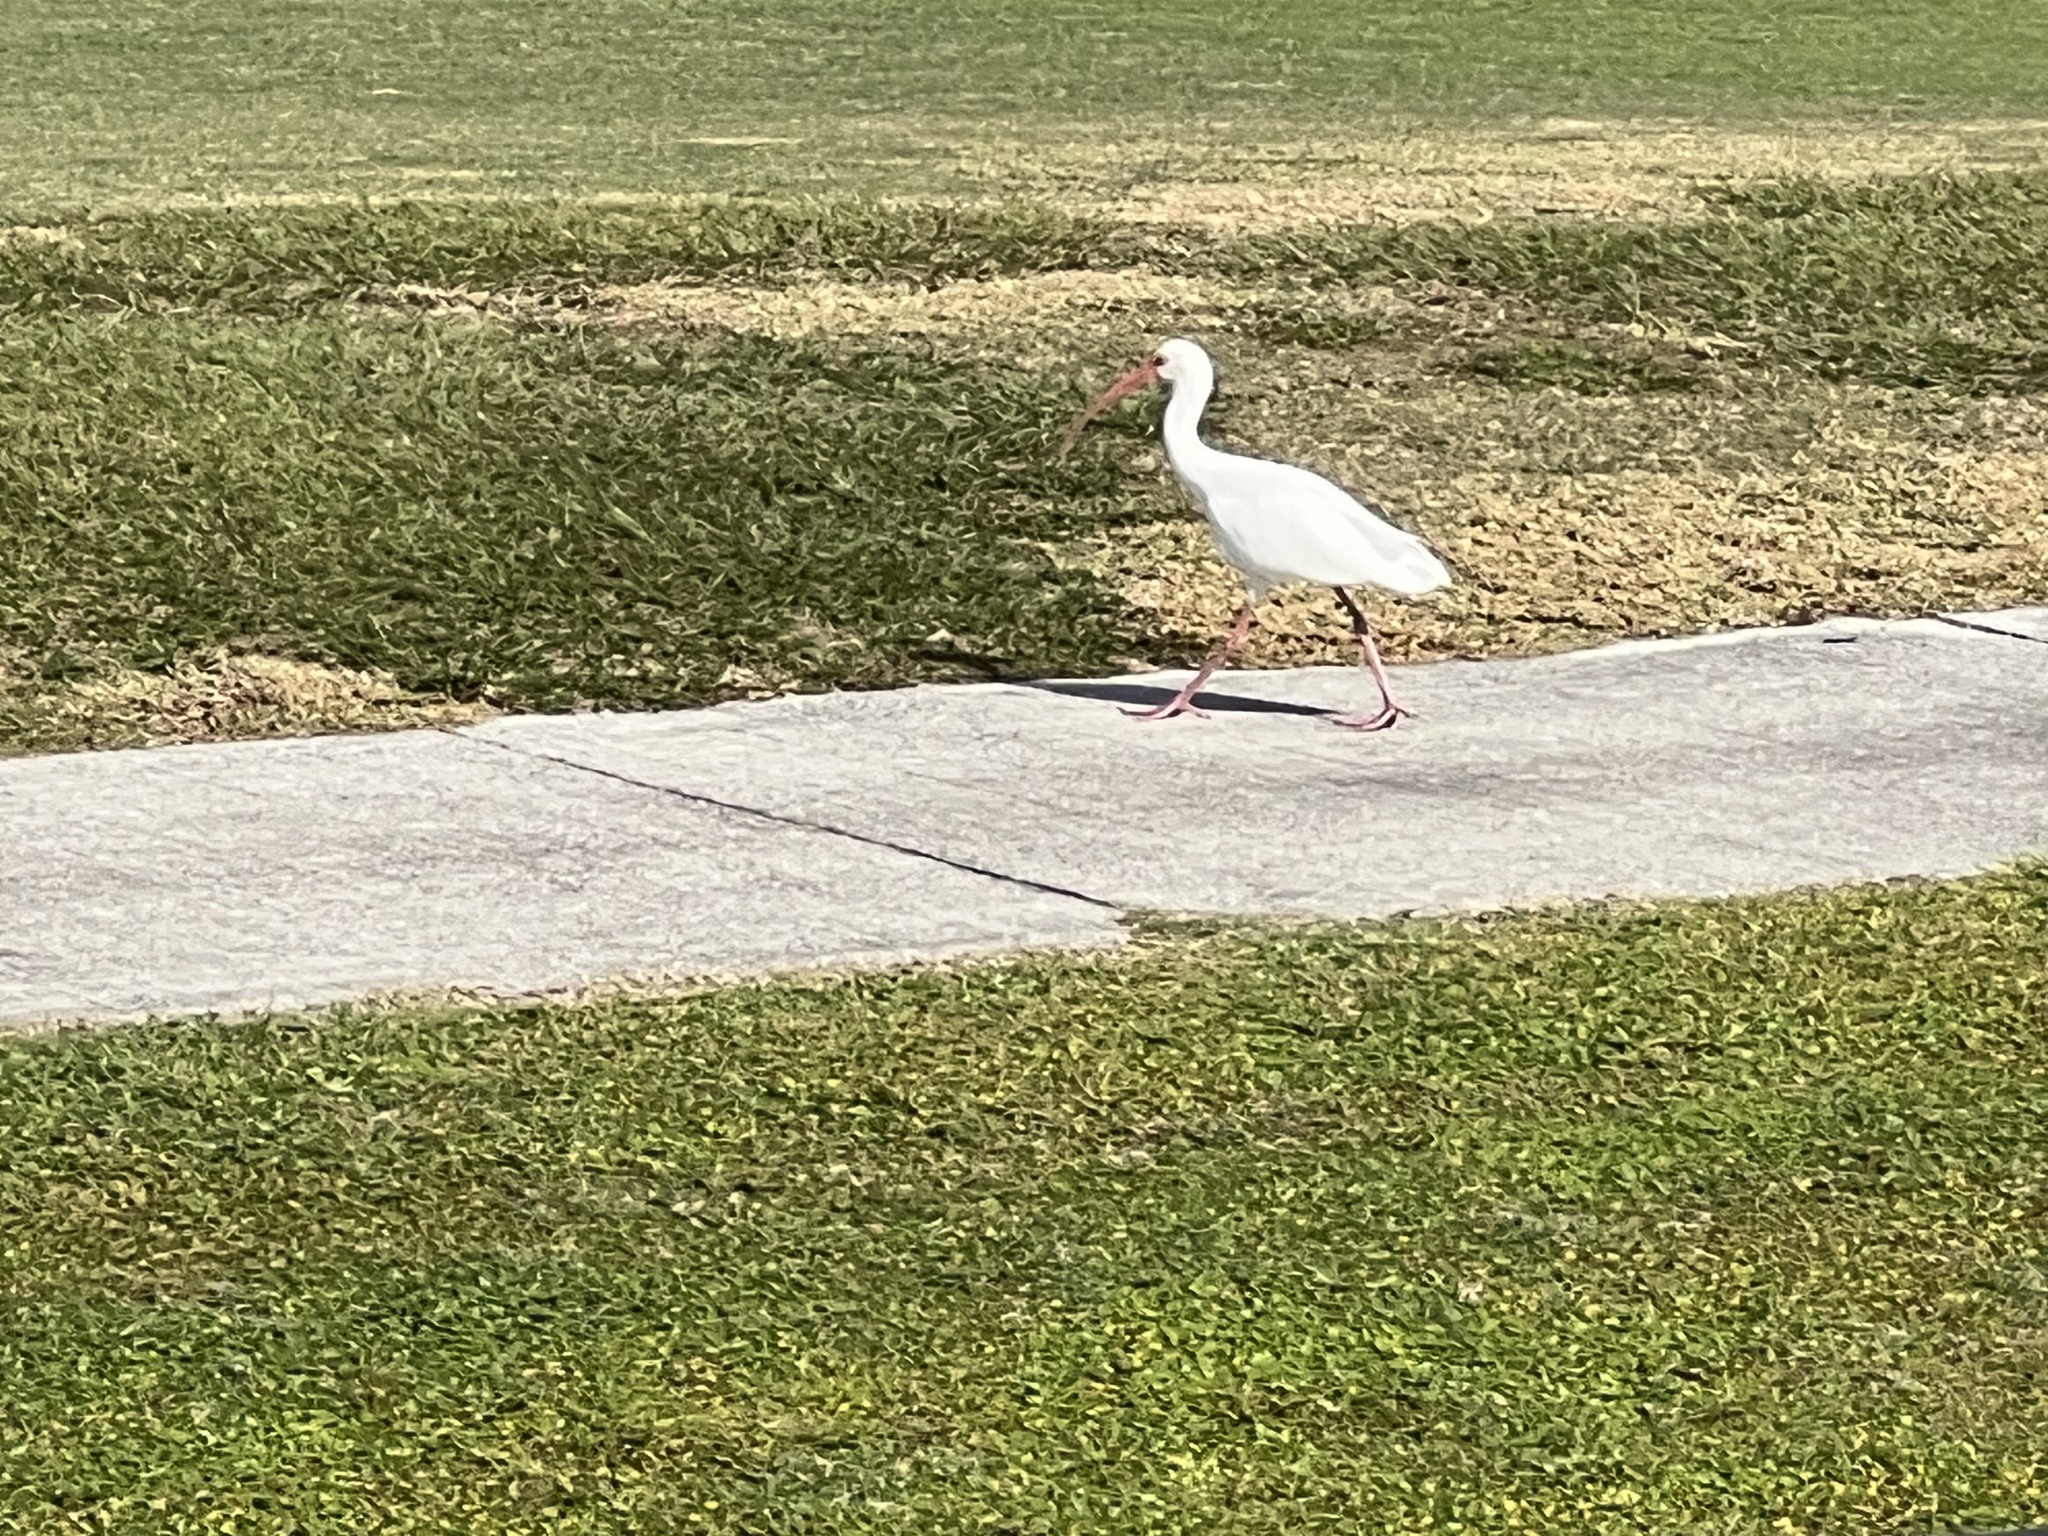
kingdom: Animalia
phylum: Chordata
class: Aves
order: Pelecaniformes
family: Threskiornithidae
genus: Eudocimus
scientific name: Eudocimus albus
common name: White ibis
